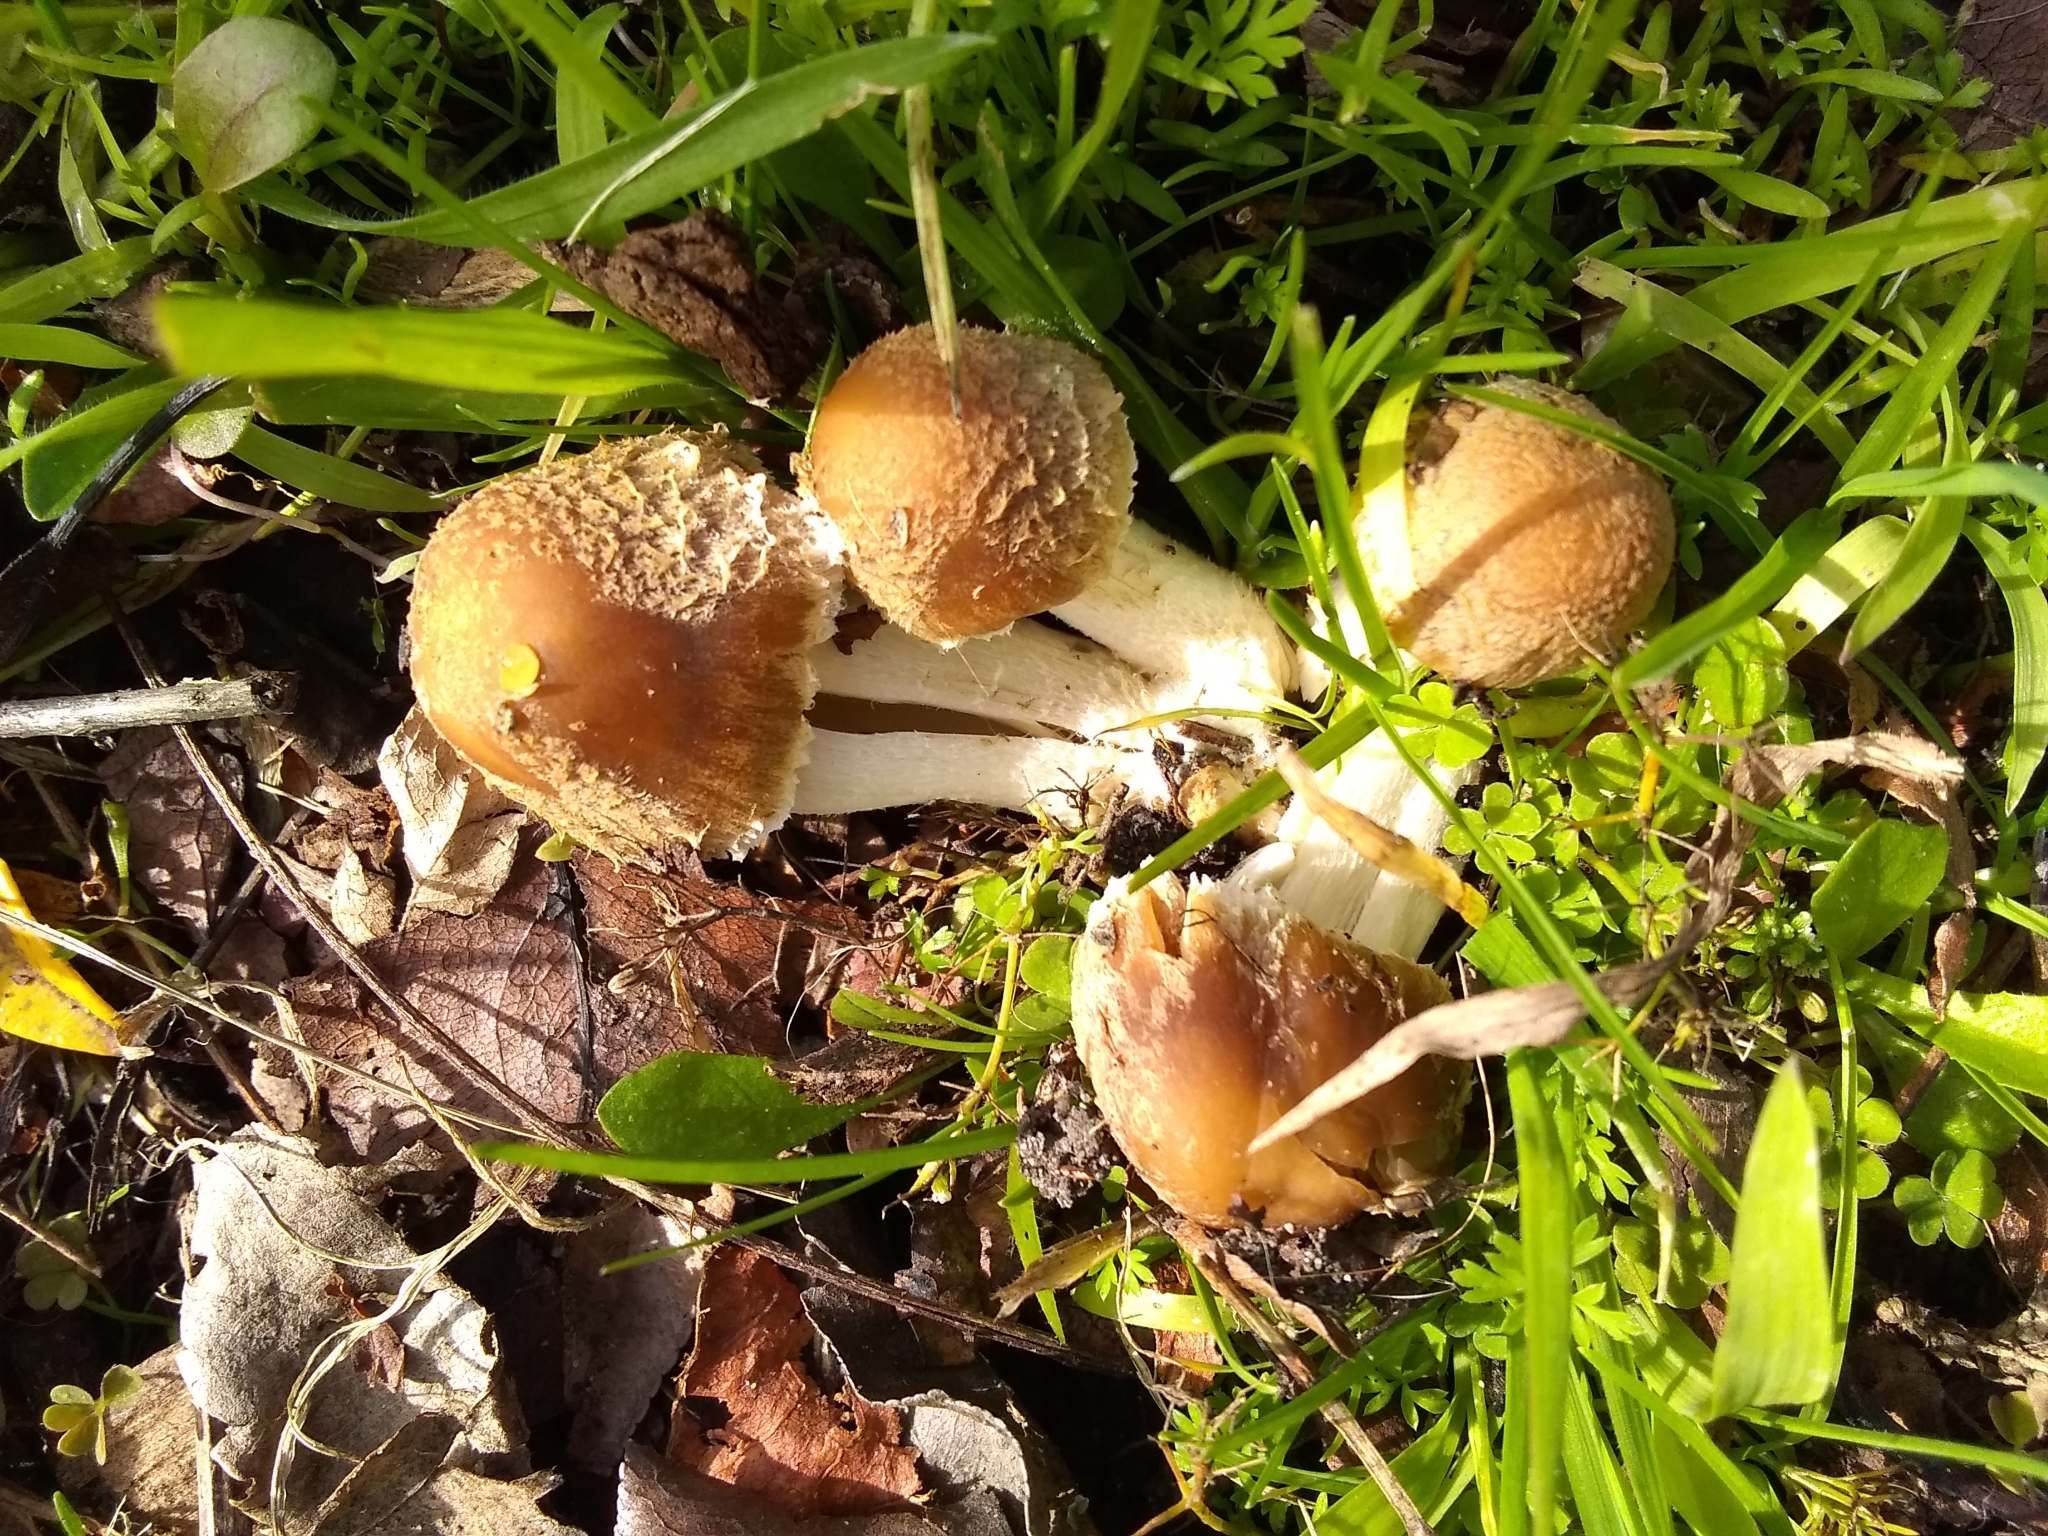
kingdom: Fungi
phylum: Basidiomycota
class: Agaricomycetes
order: Agaricales
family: Psathyrellaceae
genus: Candolleomyces
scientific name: Candolleomyces candolleanus
